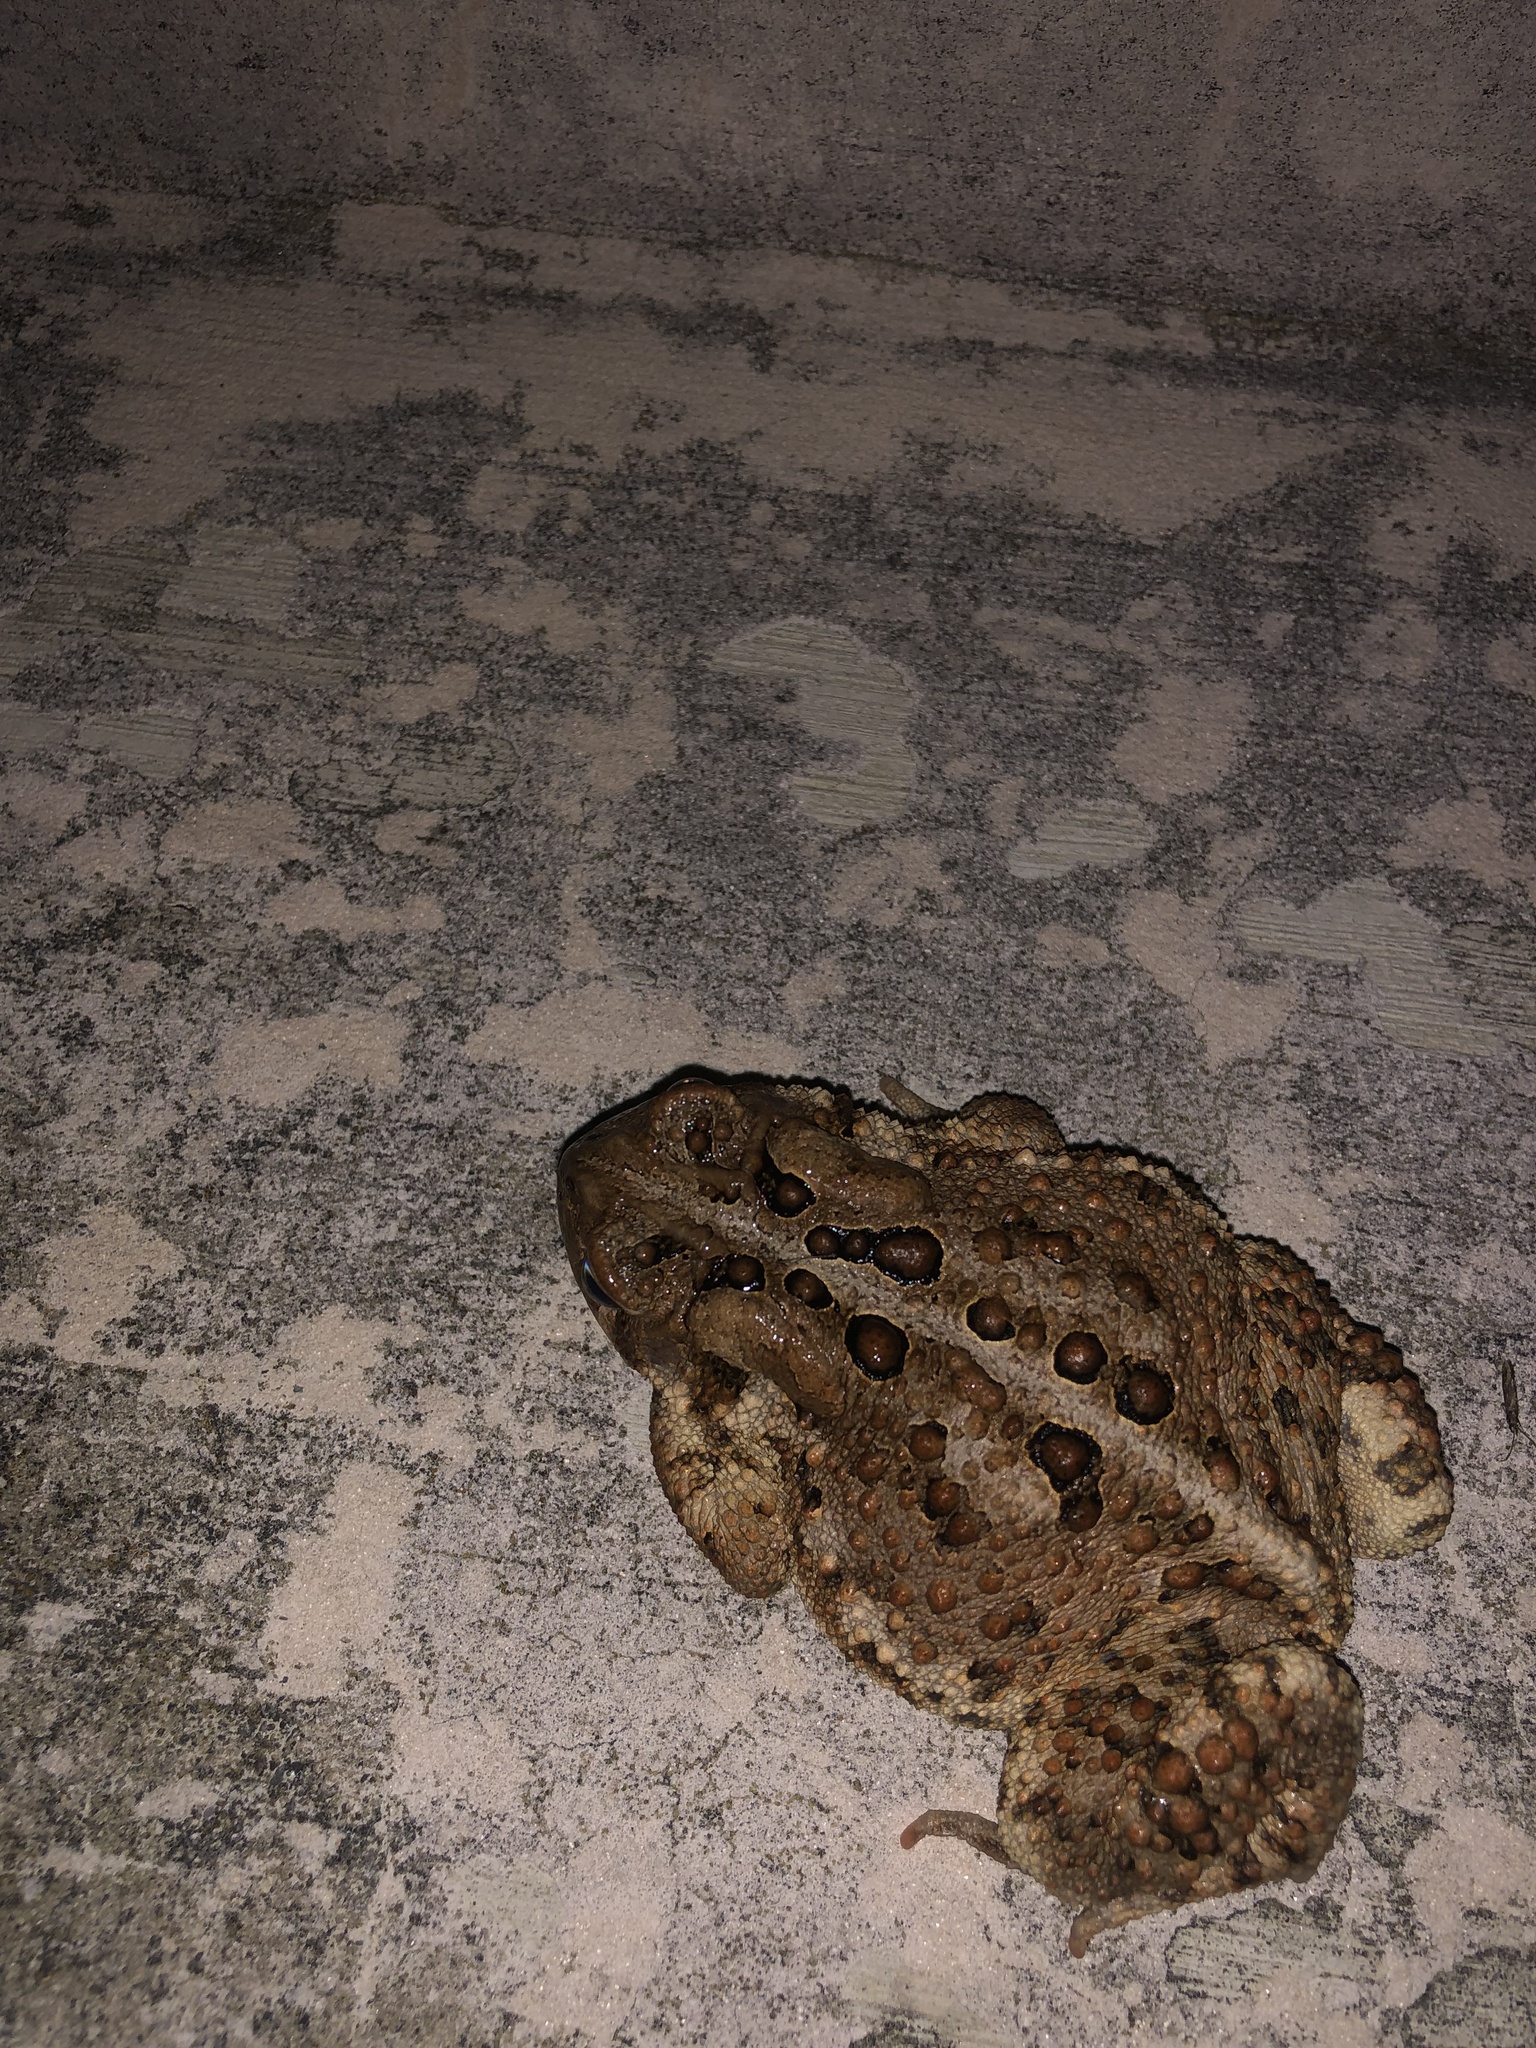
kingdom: Animalia
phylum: Chordata
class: Amphibia
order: Anura
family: Bufonidae
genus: Anaxyrus
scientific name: Anaxyrus americanus
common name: American toad
